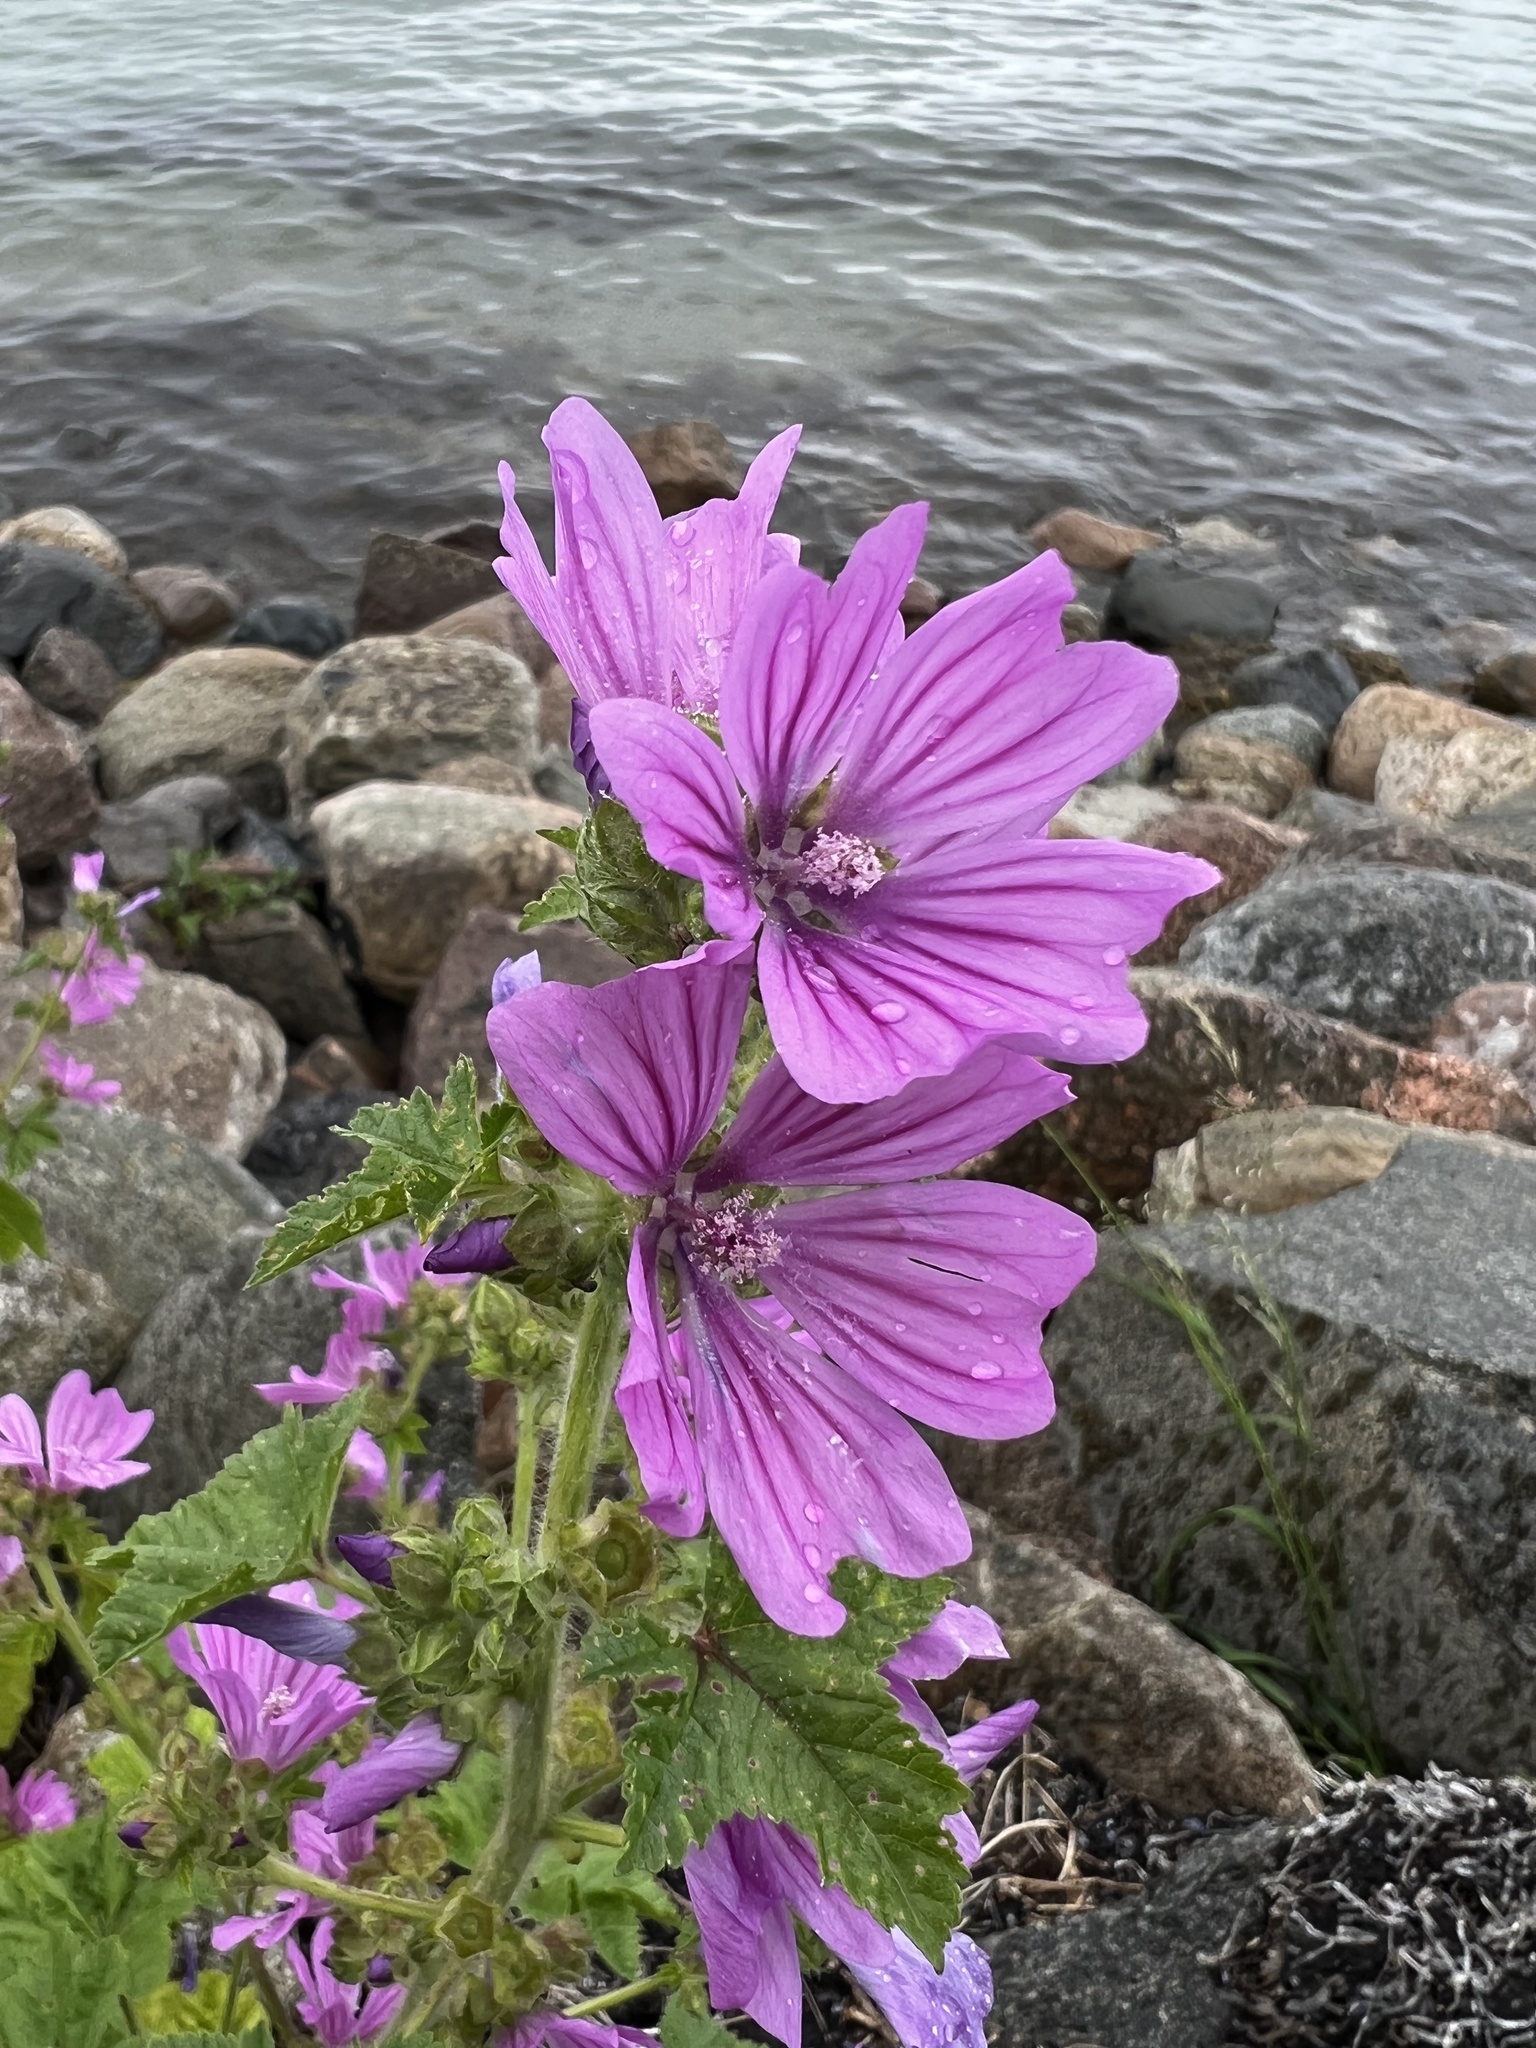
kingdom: Plantae
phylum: Tracheophyta
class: Magnoliopsida
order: Malvales
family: Malvaceae
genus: Malva
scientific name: Malva sylvestris
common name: Common mallow
